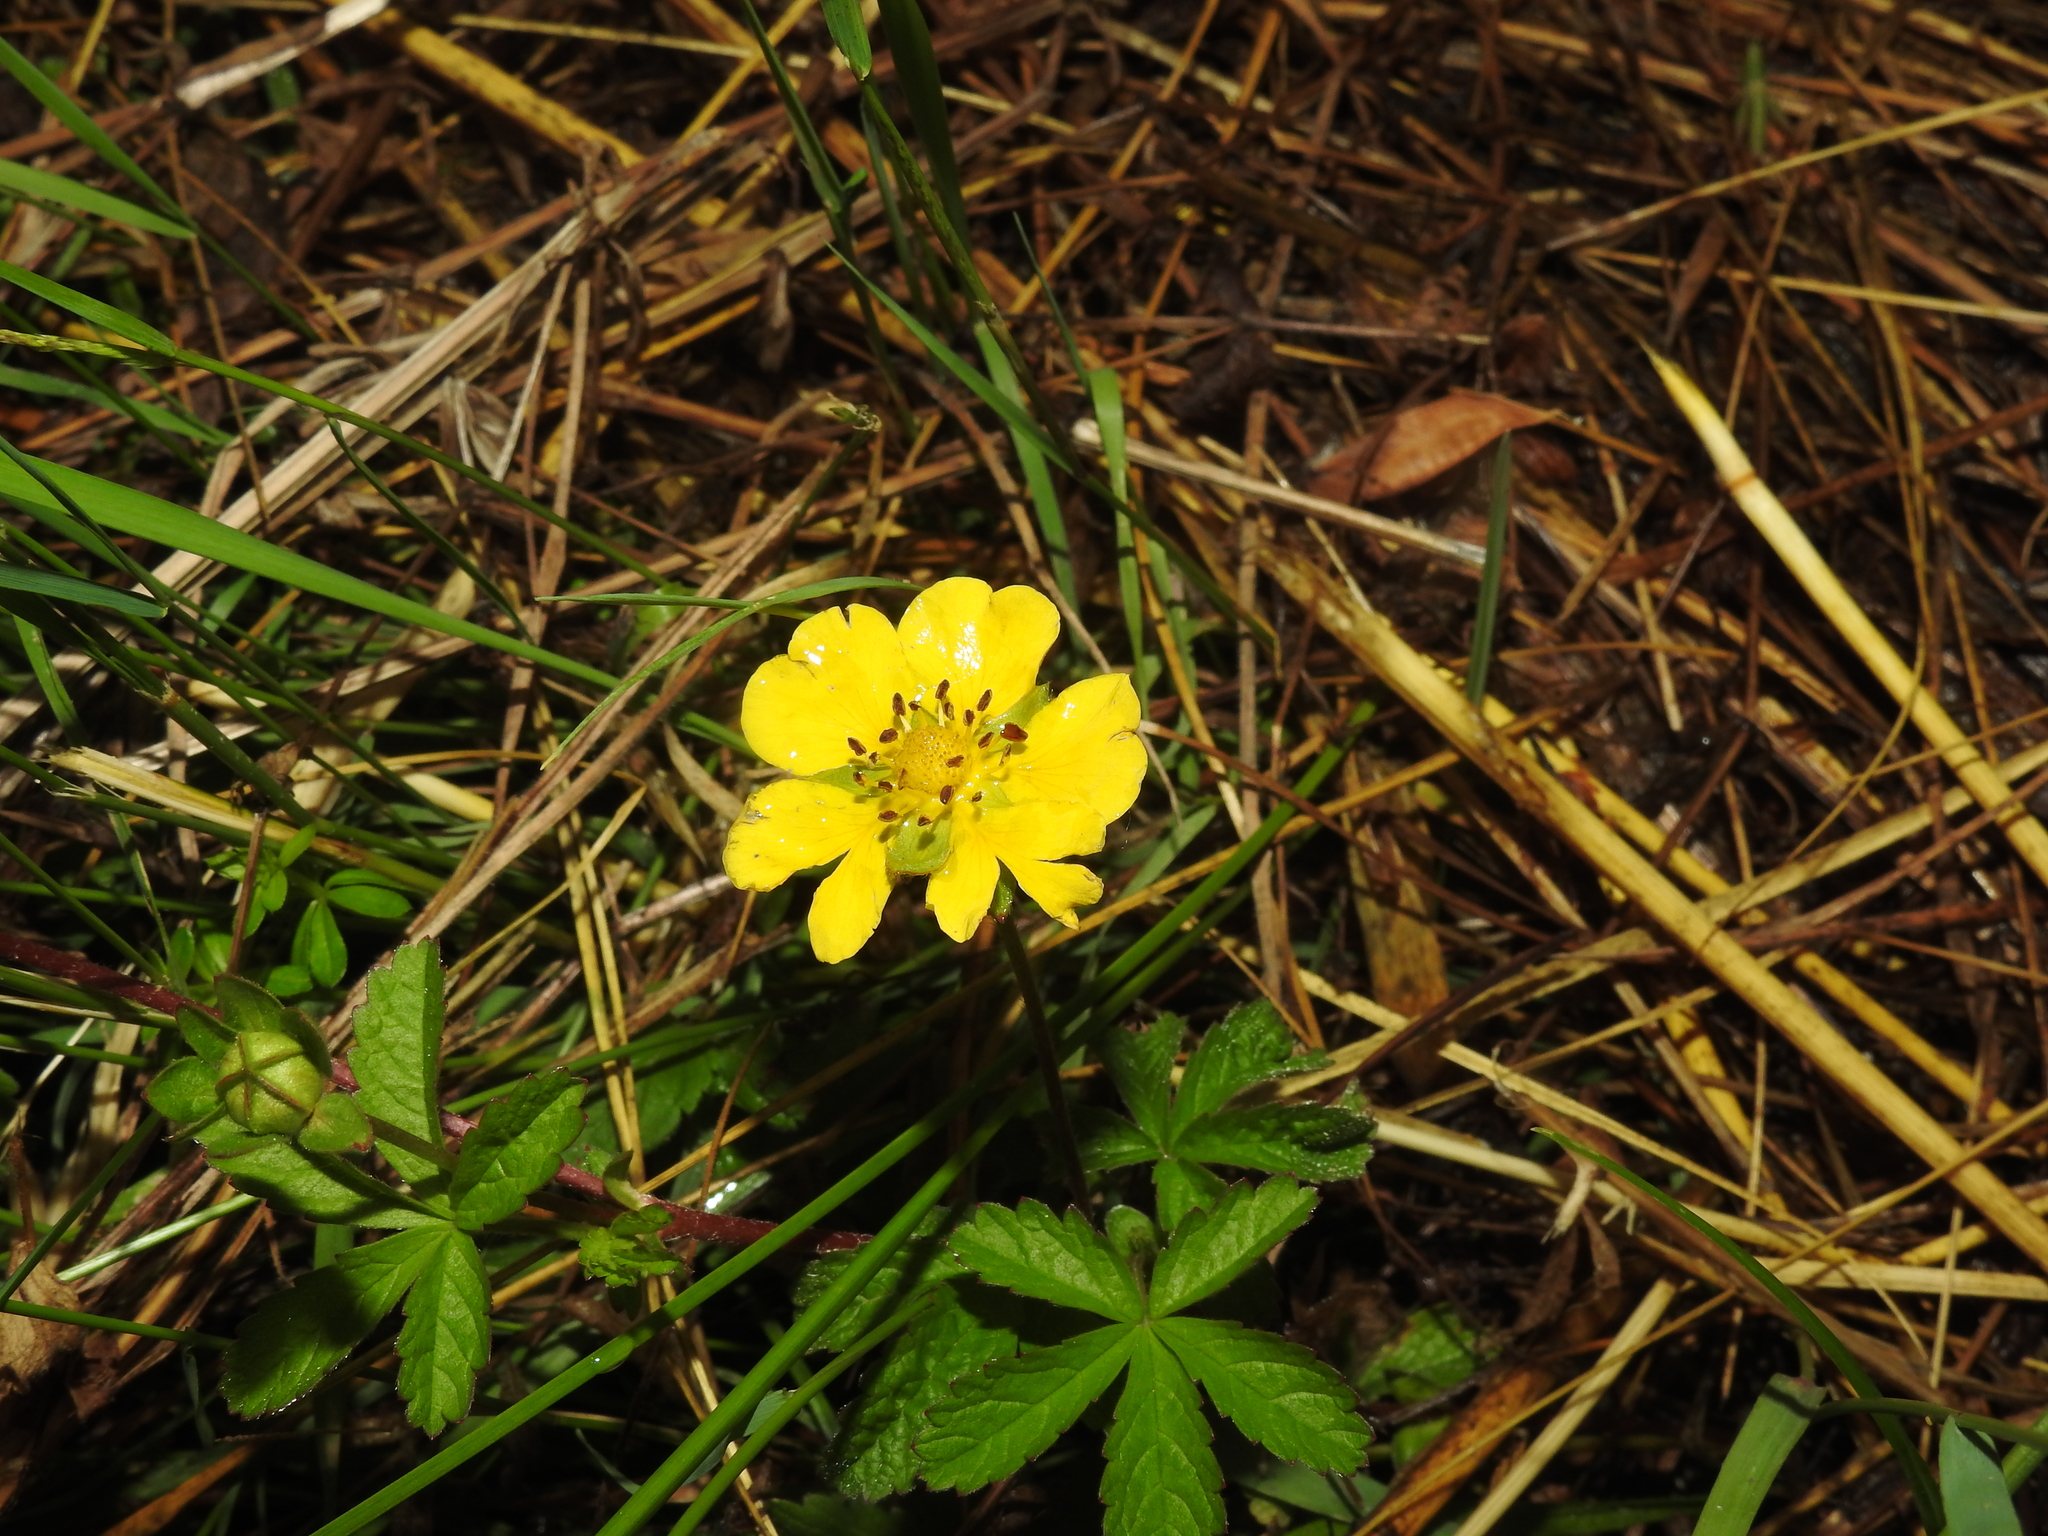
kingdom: Plantae
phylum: Tracheophyta
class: Magnoliopsida
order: Rosales
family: Rosaceae
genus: Potentilla
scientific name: Potentilla reptans
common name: Creeping cinquefoil
